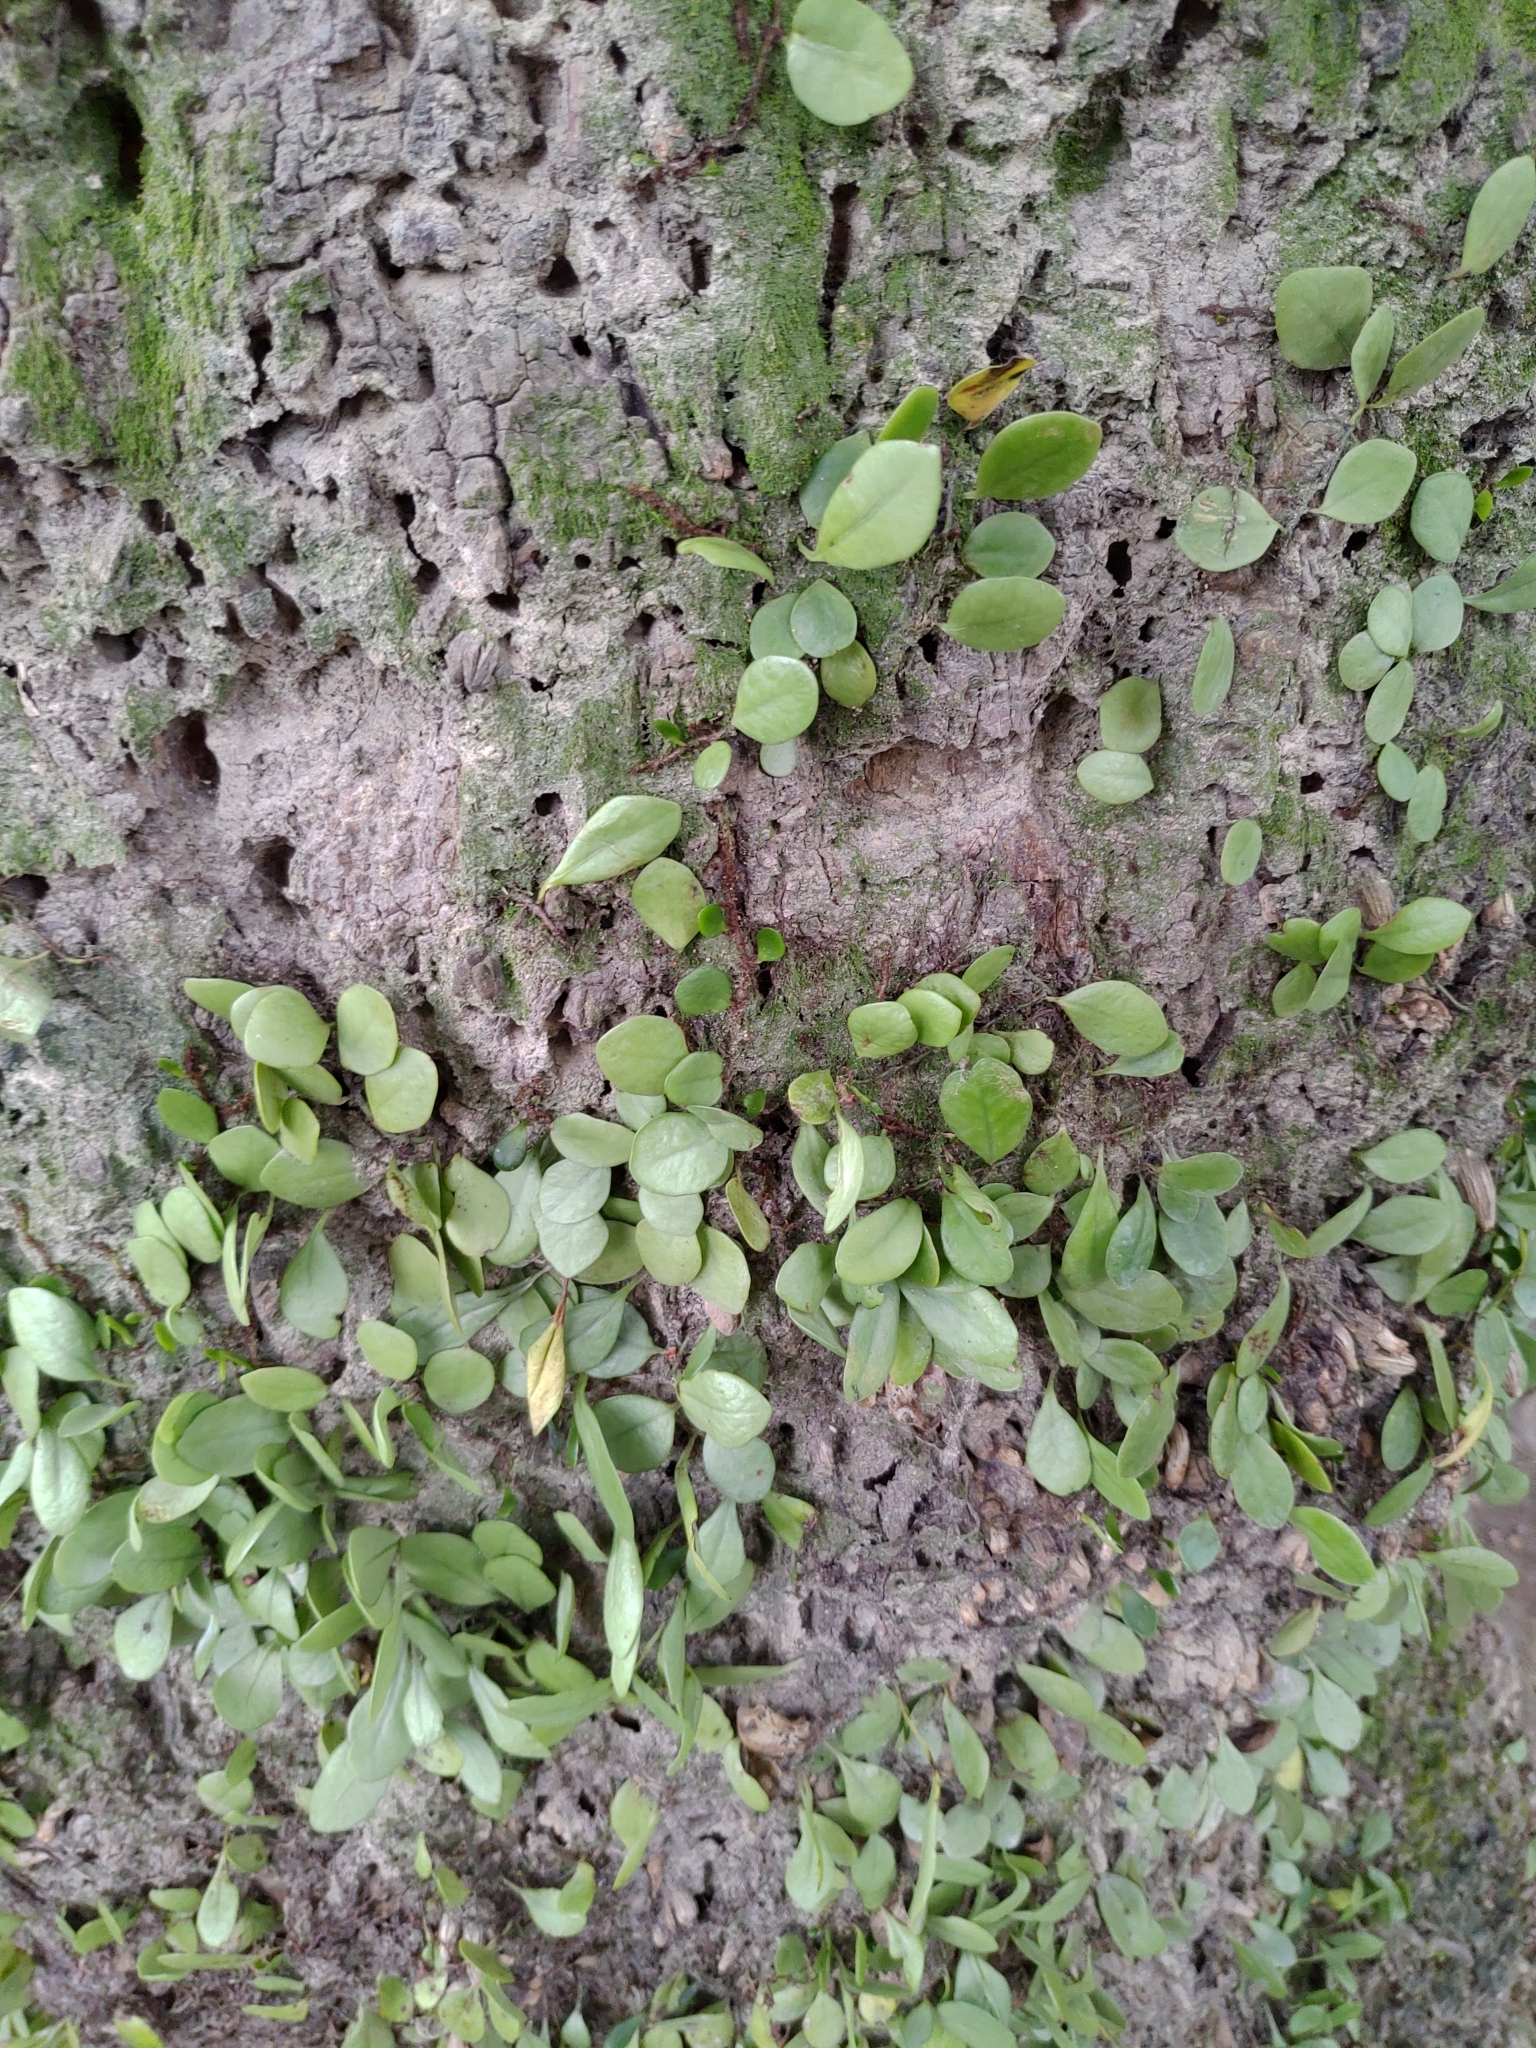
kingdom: Plantae
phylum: Tracheophyta
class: Polypodiopsida
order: Polypodiales
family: Polypodiaceae
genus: Lepisorus
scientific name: Lepisorus microphyllus
